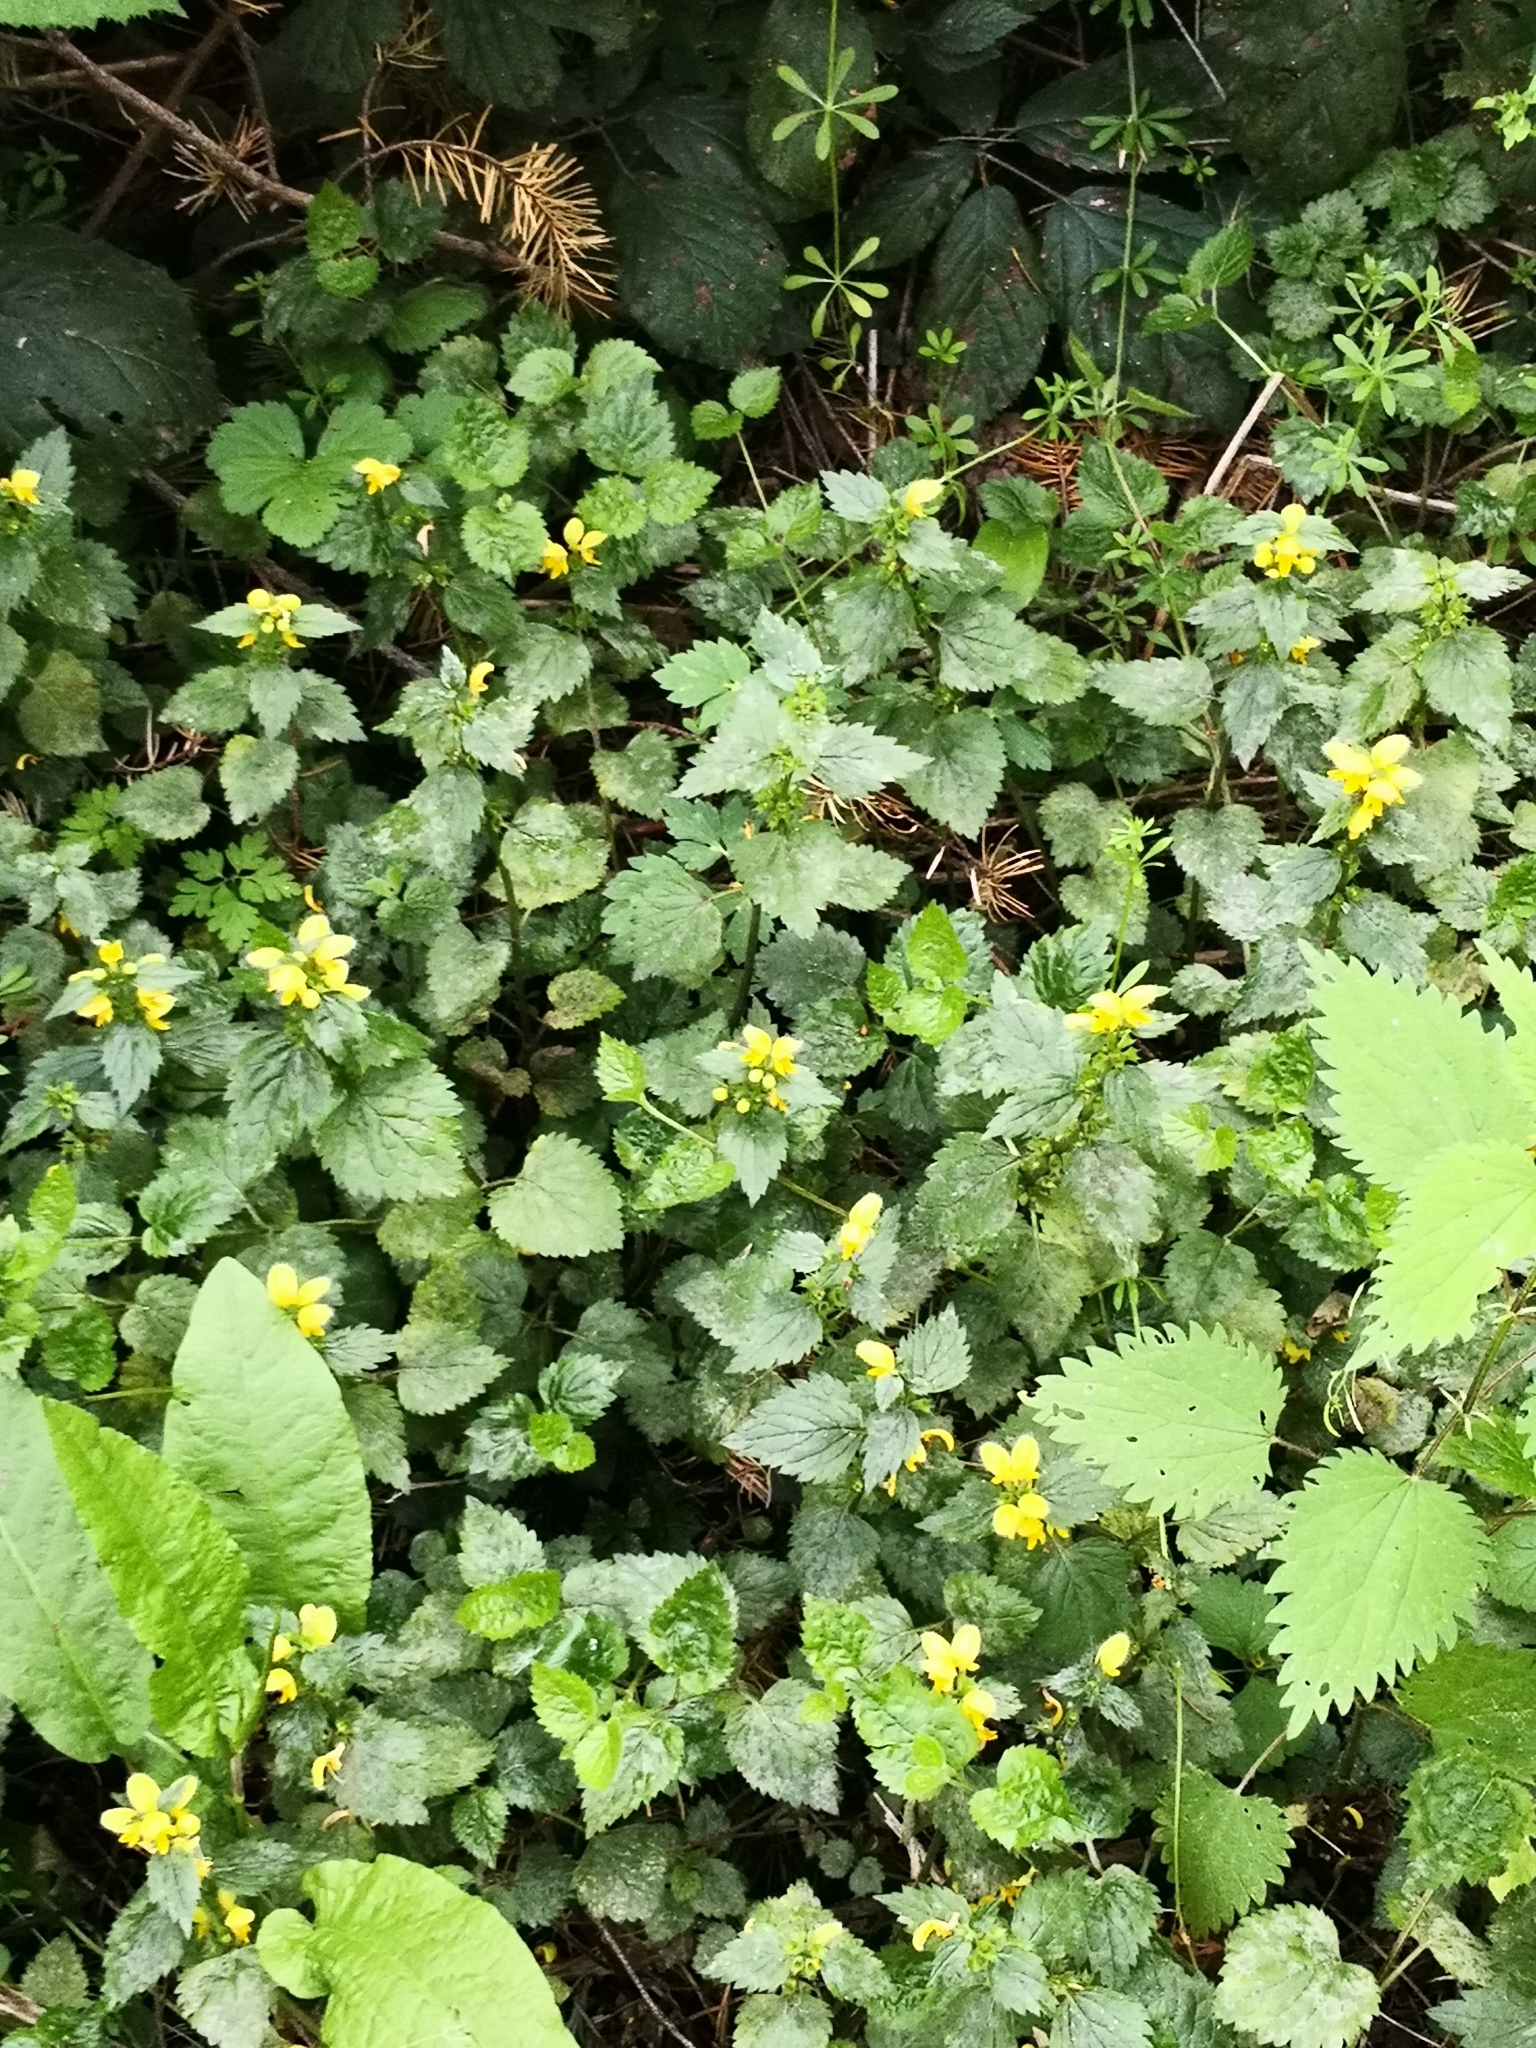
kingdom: Plantae
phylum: Tracheophyta
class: Magnoliopsida
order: Lamiales
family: Lamiaceae
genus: Lamium
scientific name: Lamium galeobdolon
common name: Yellow archangel
